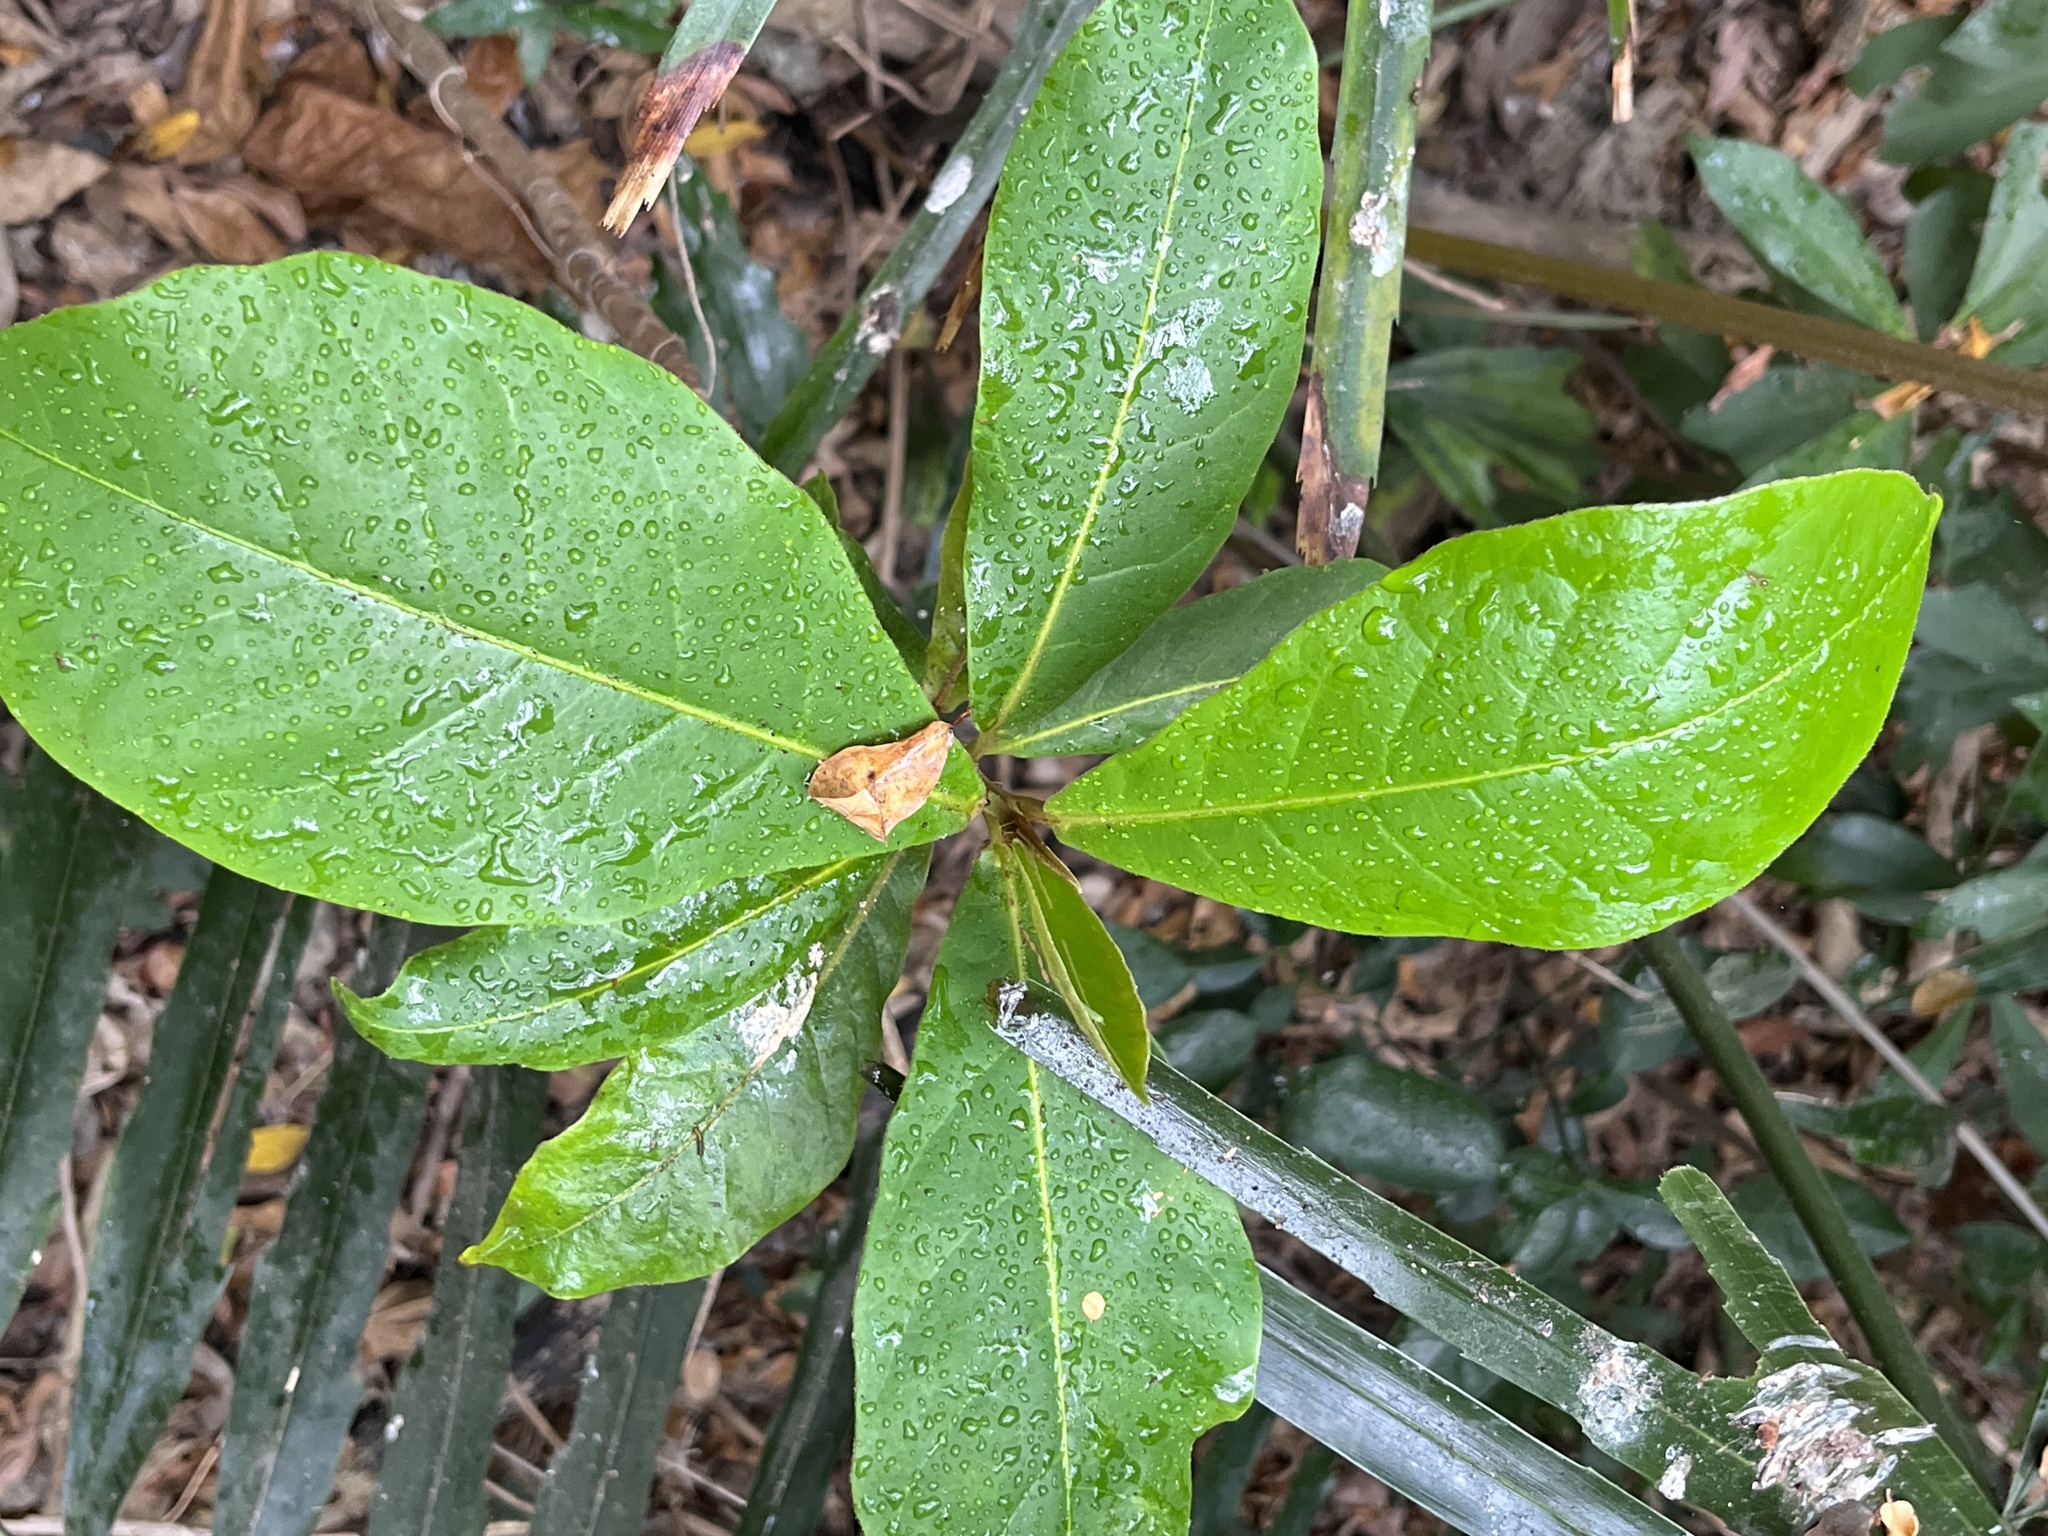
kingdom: Plantae
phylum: Tracheophyta
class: Magnoliopsida
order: Myrtales
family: Combretaceae
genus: Terminalia
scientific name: Terminalia catappa
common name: Tropical almond
